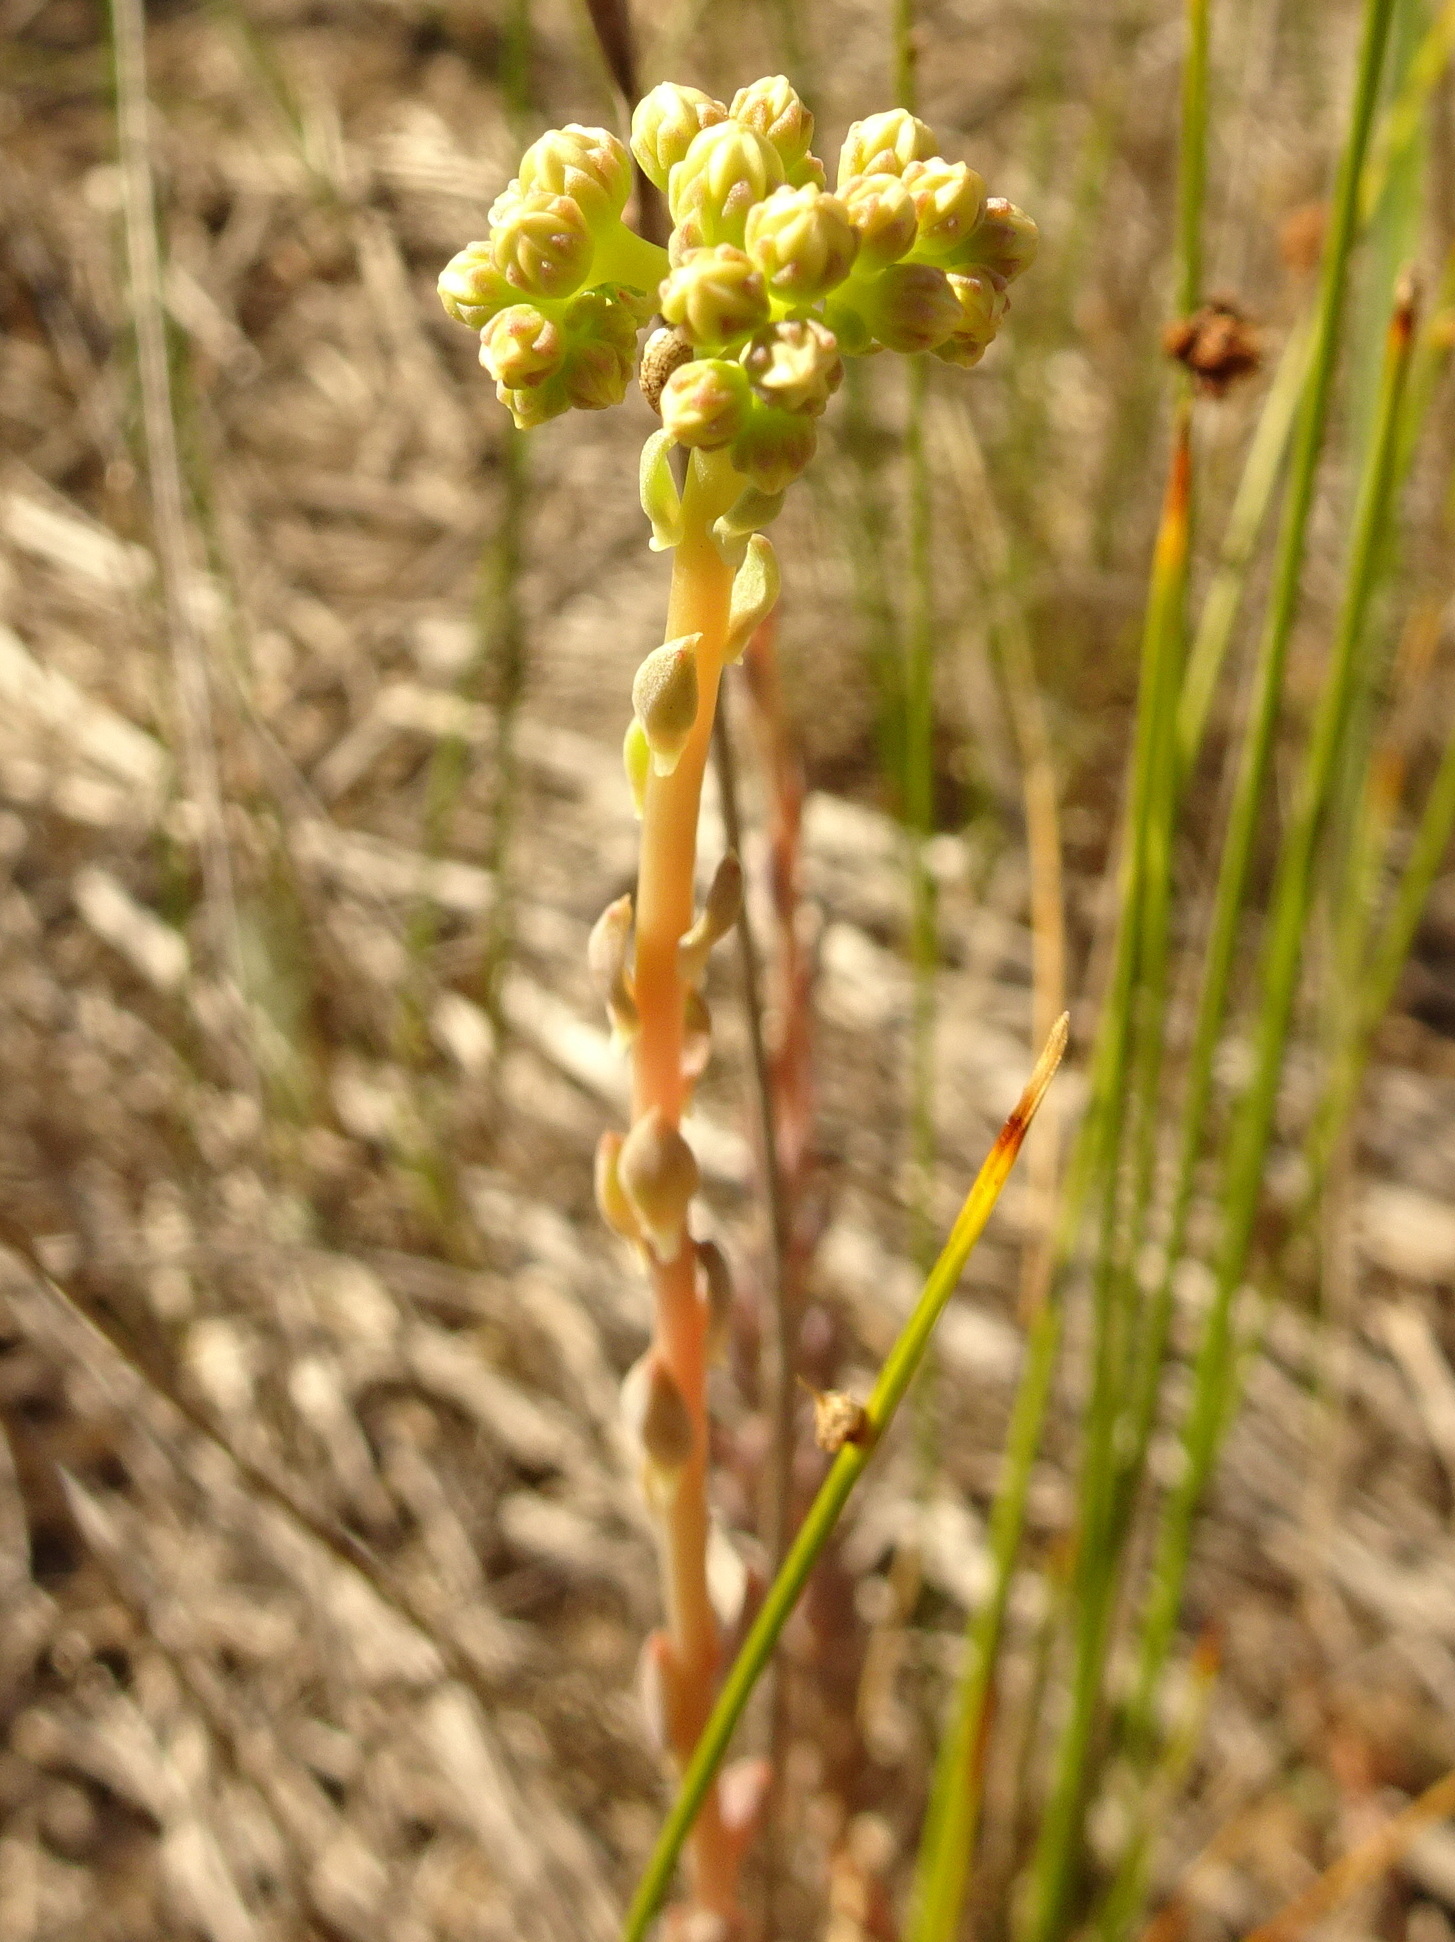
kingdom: Plantae
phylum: Tracheophyta
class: Magnoliopsida
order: Saxifragales
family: Crassulaceae
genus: Petrosedum
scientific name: Petrosedum sediforme
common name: Pale stonecrop
